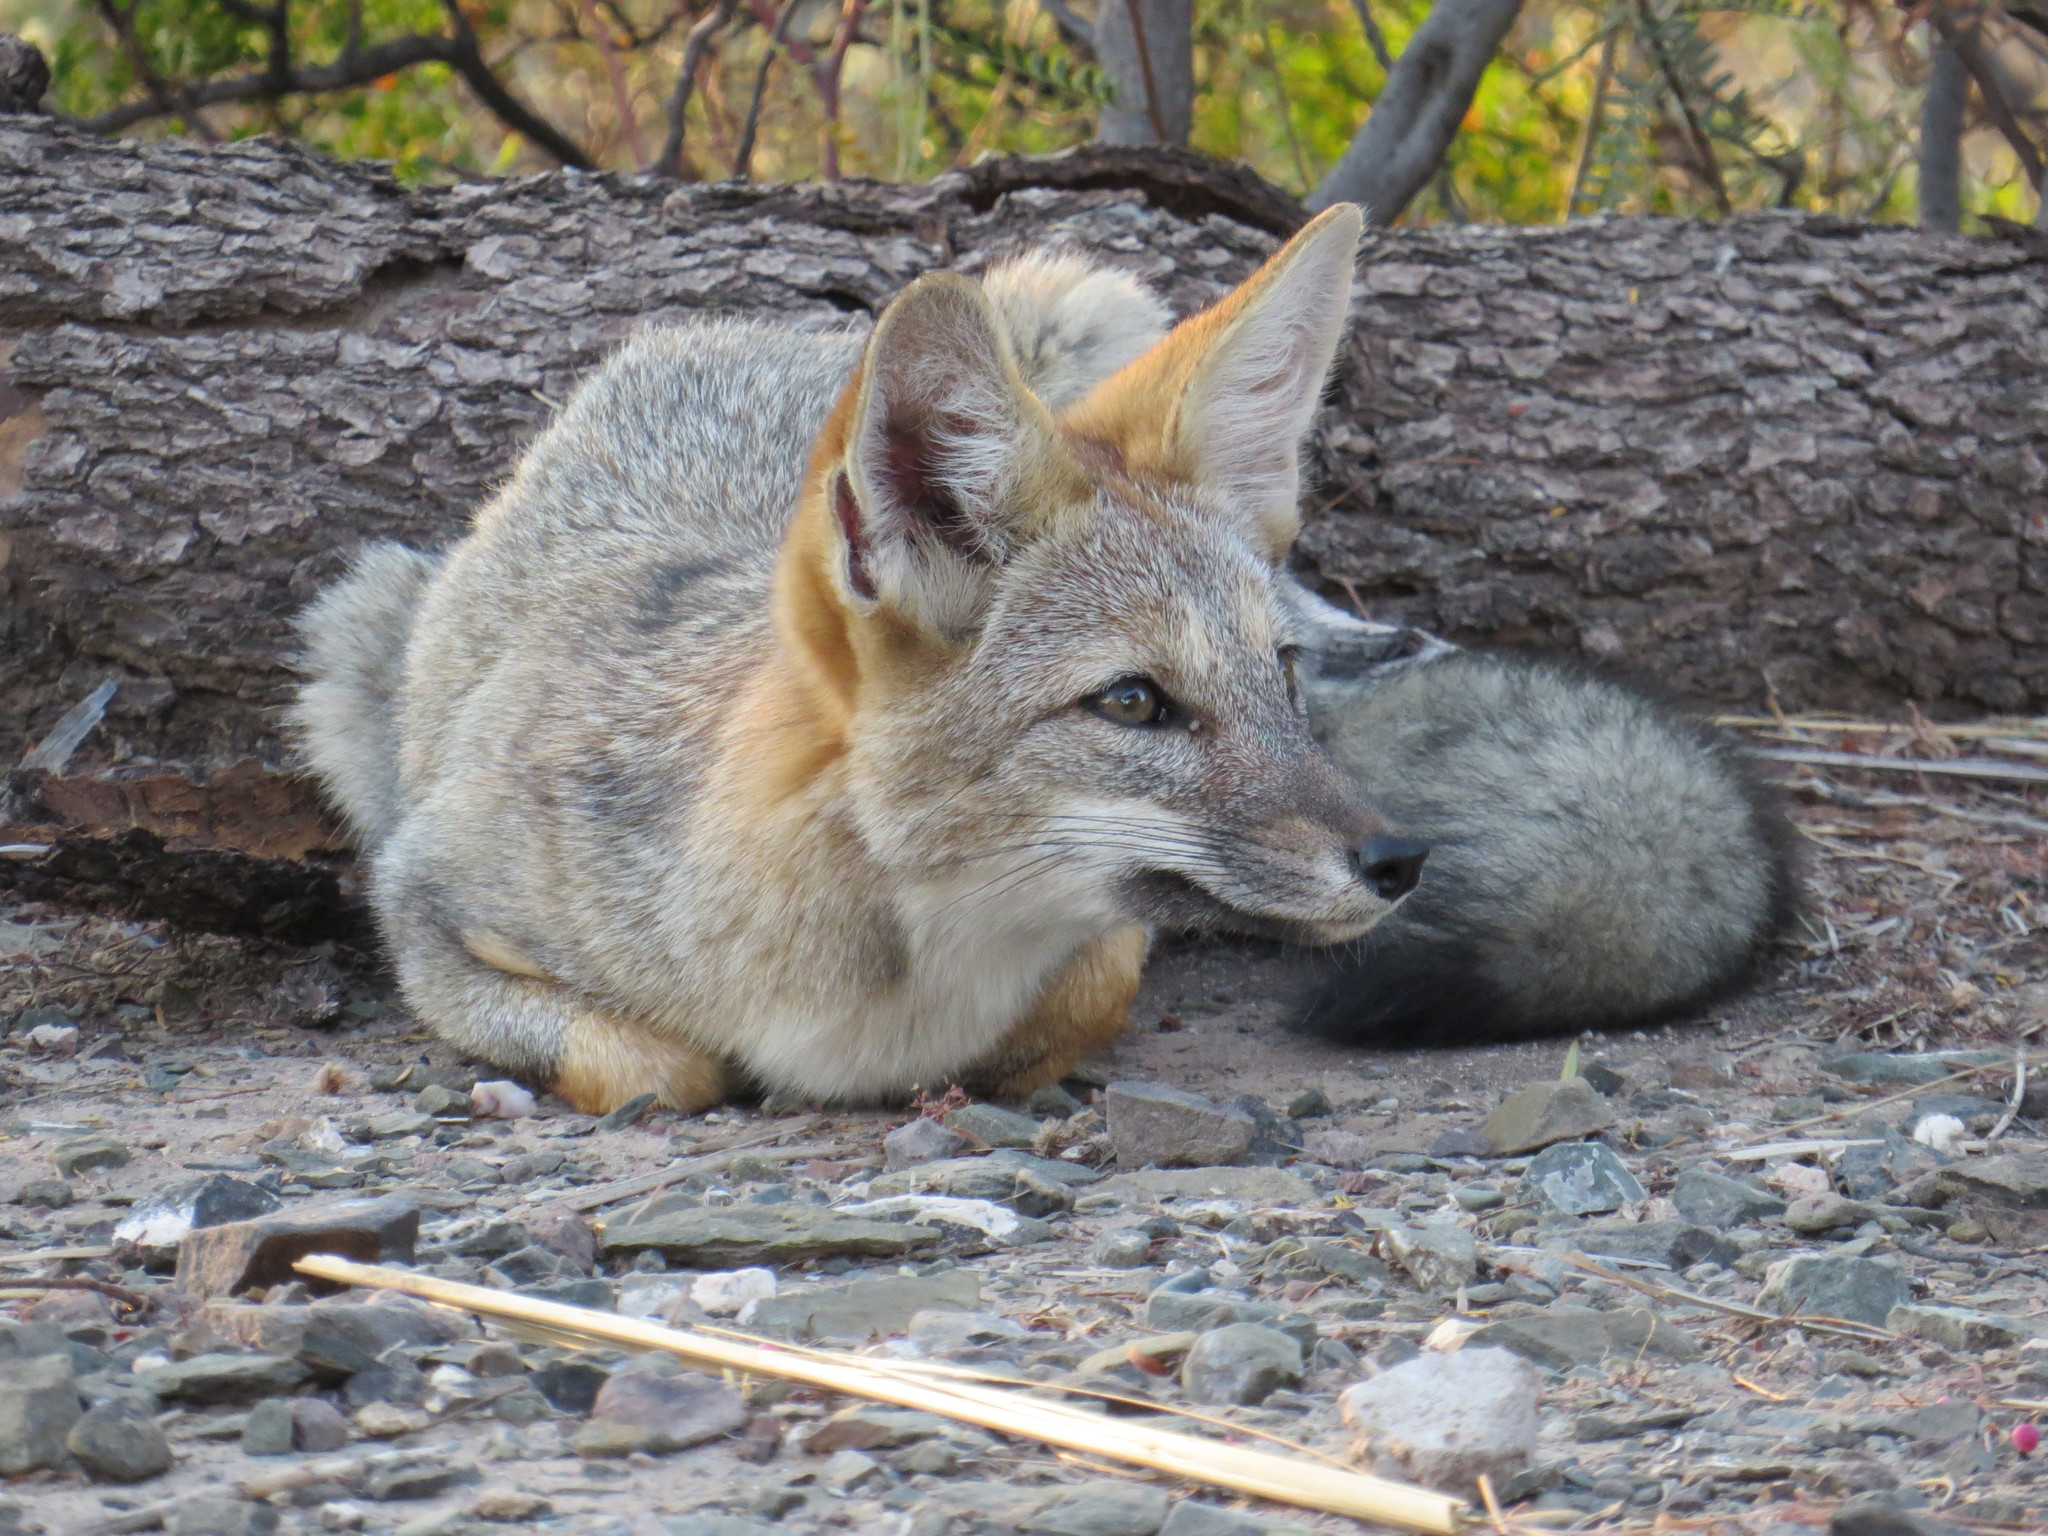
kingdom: Animalia
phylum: Chordata
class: Mammalia
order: Carnivora
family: Canidae
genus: Lycalopex
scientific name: Lycalopex gymnocercus
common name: Pampas fox
